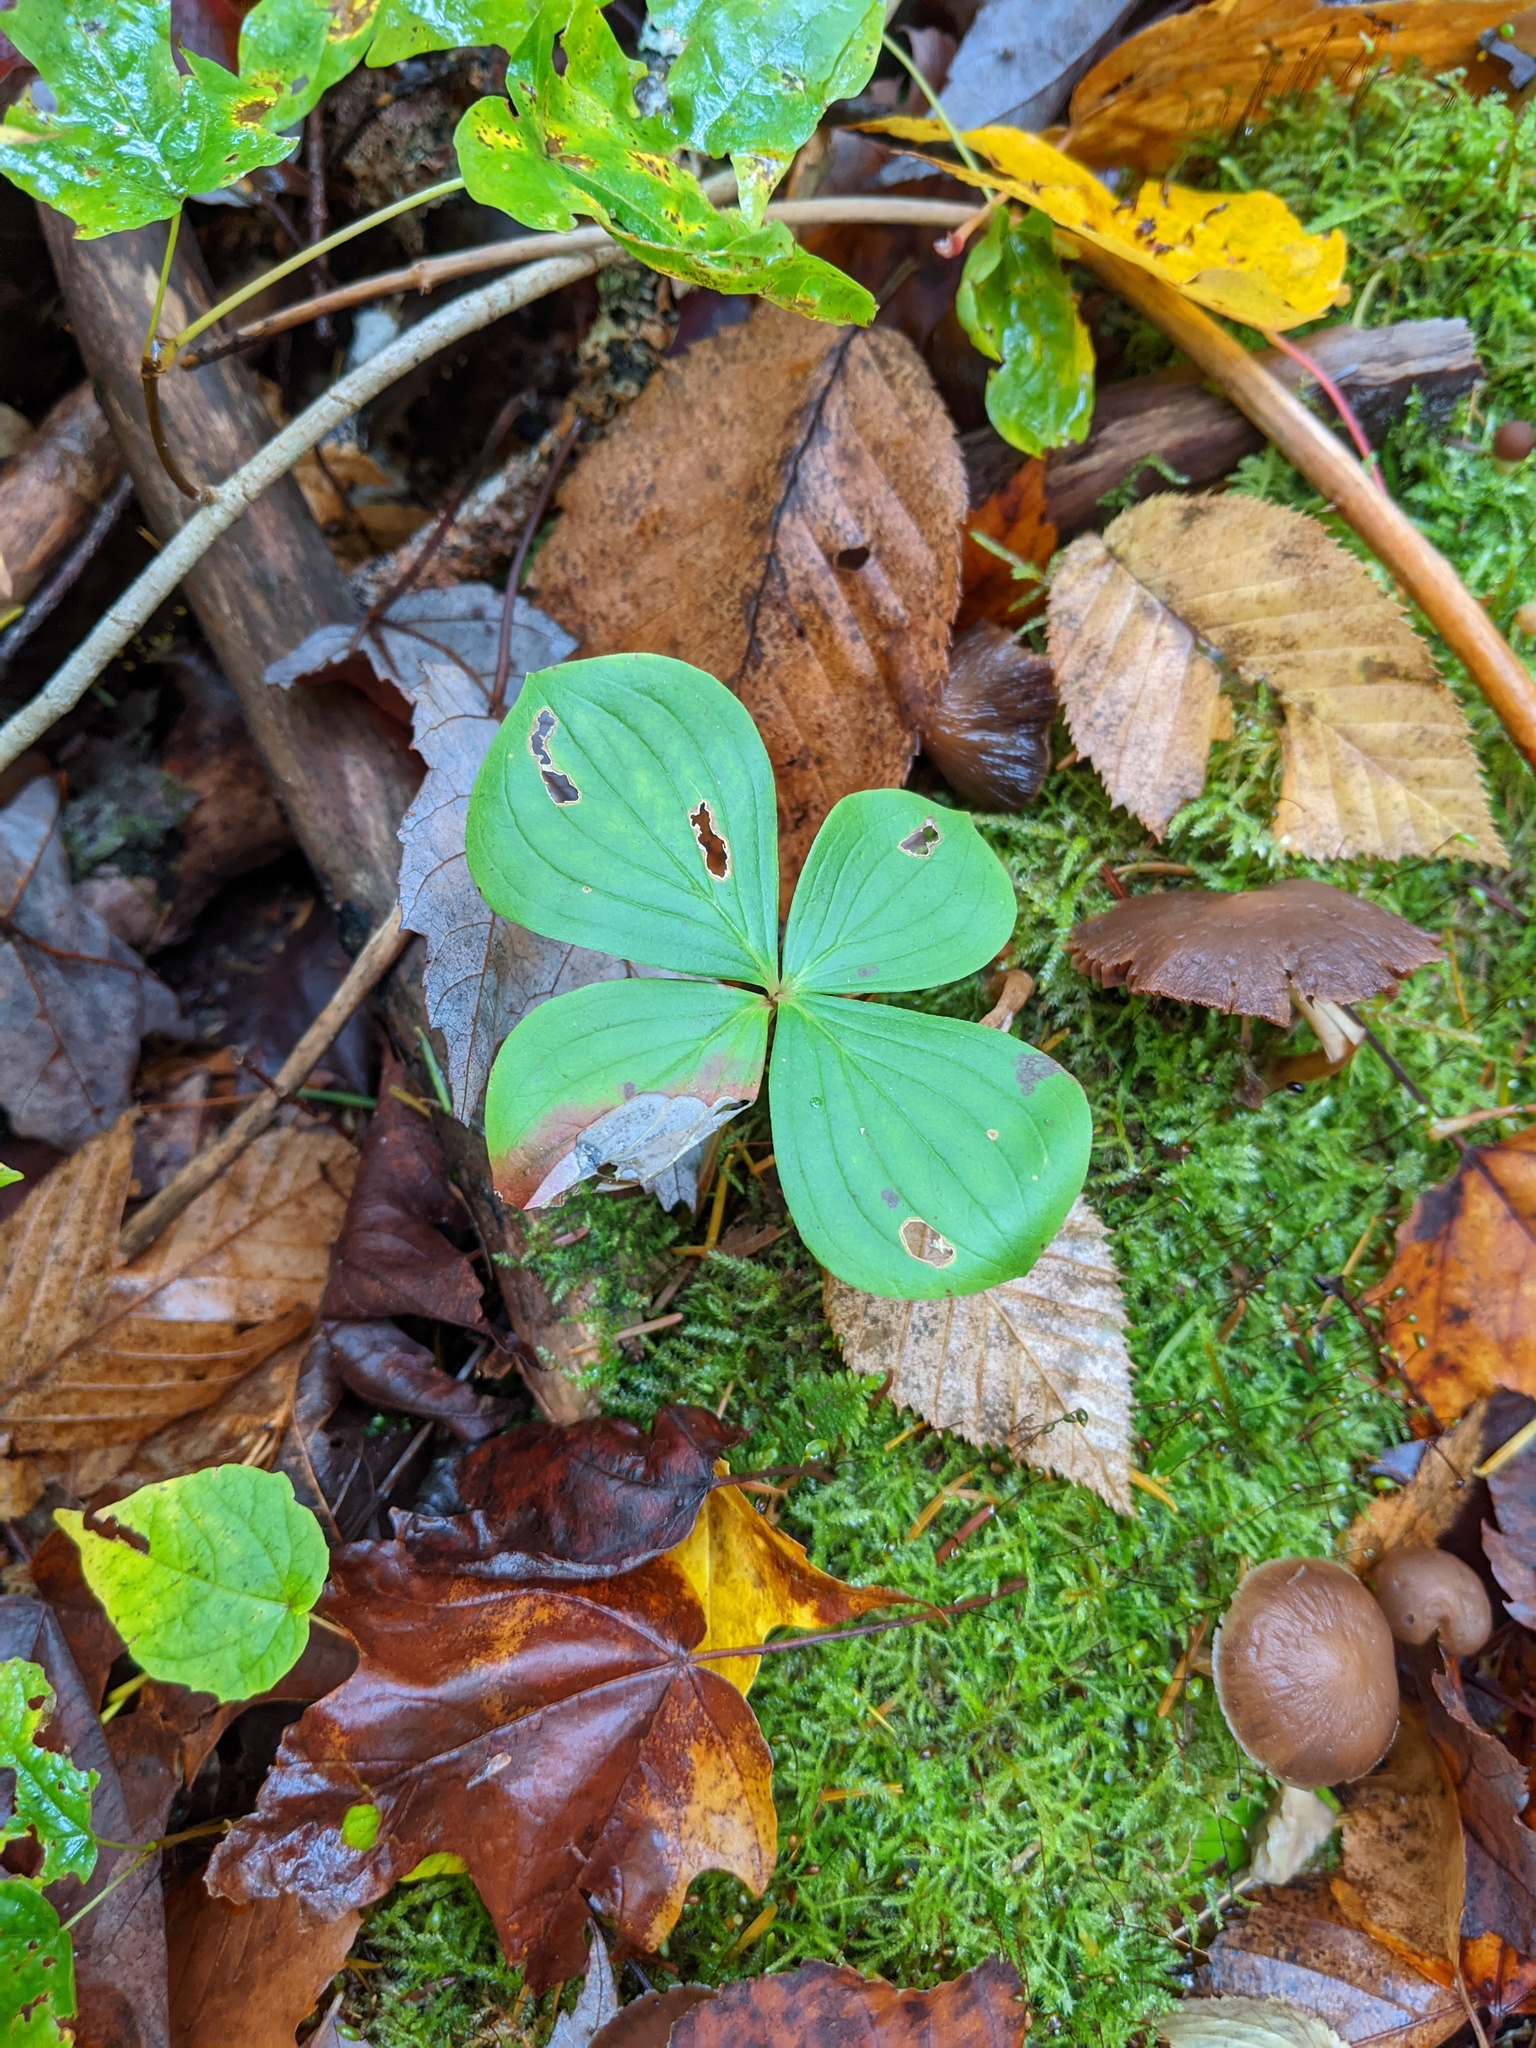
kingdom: Plantae
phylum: Tracheophyta
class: Magnoliopsida
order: Cornales
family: Cornaceae
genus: Cornus
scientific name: Cornus canadensis
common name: Creeping dogwood
